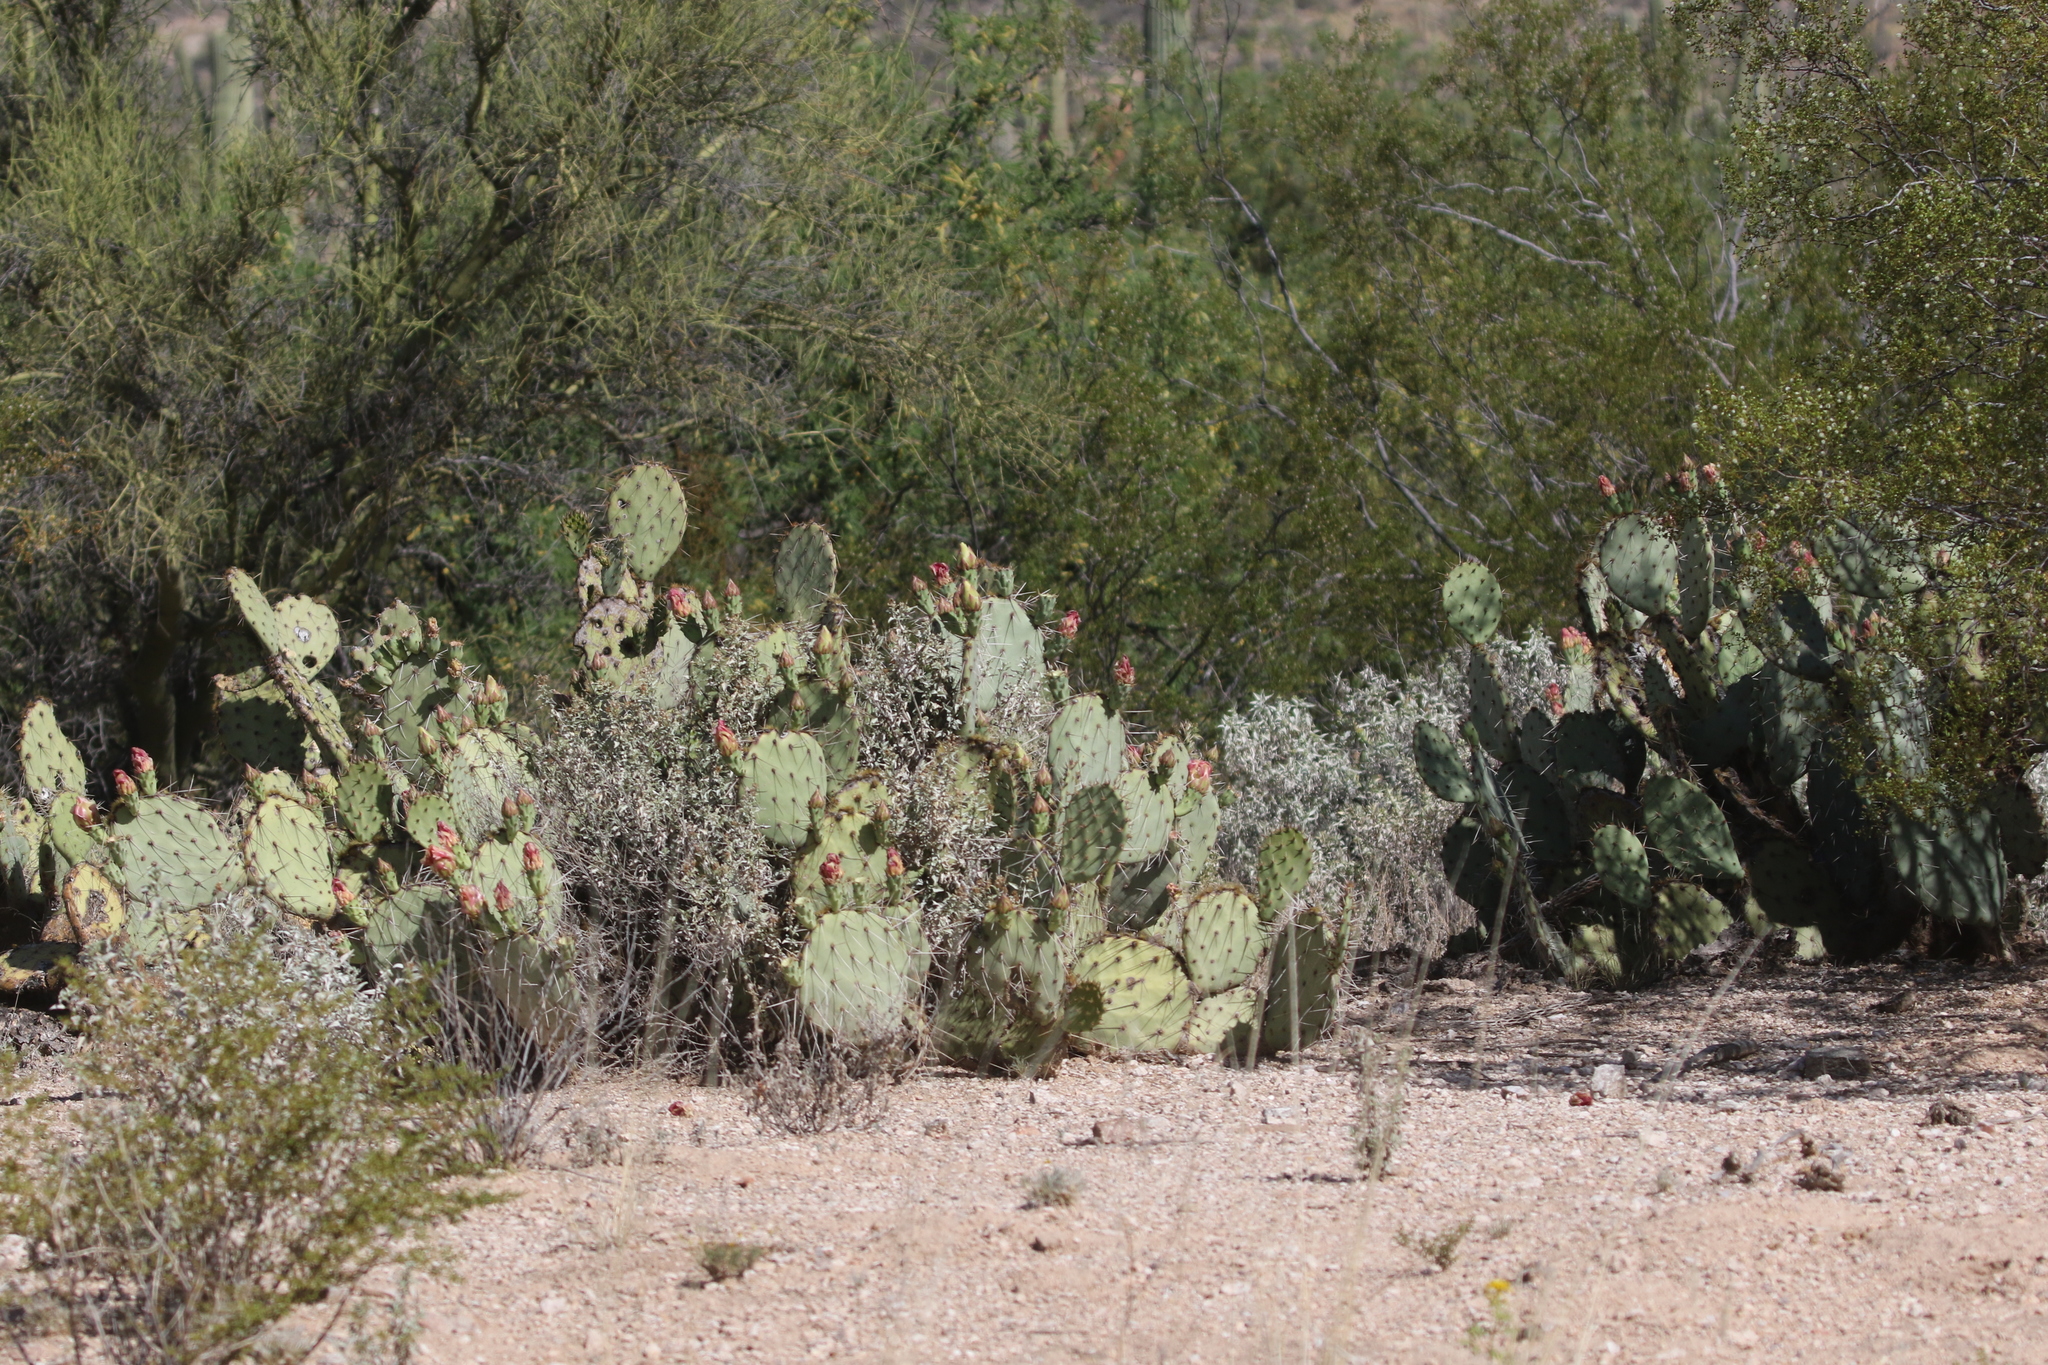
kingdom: Plantae
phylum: Tracheophyta
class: Magnoliopsida
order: Caryophyllales
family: Cactaceae
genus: Opuntia
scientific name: Opuntia phaeacantha
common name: New mexico prickly-pear
